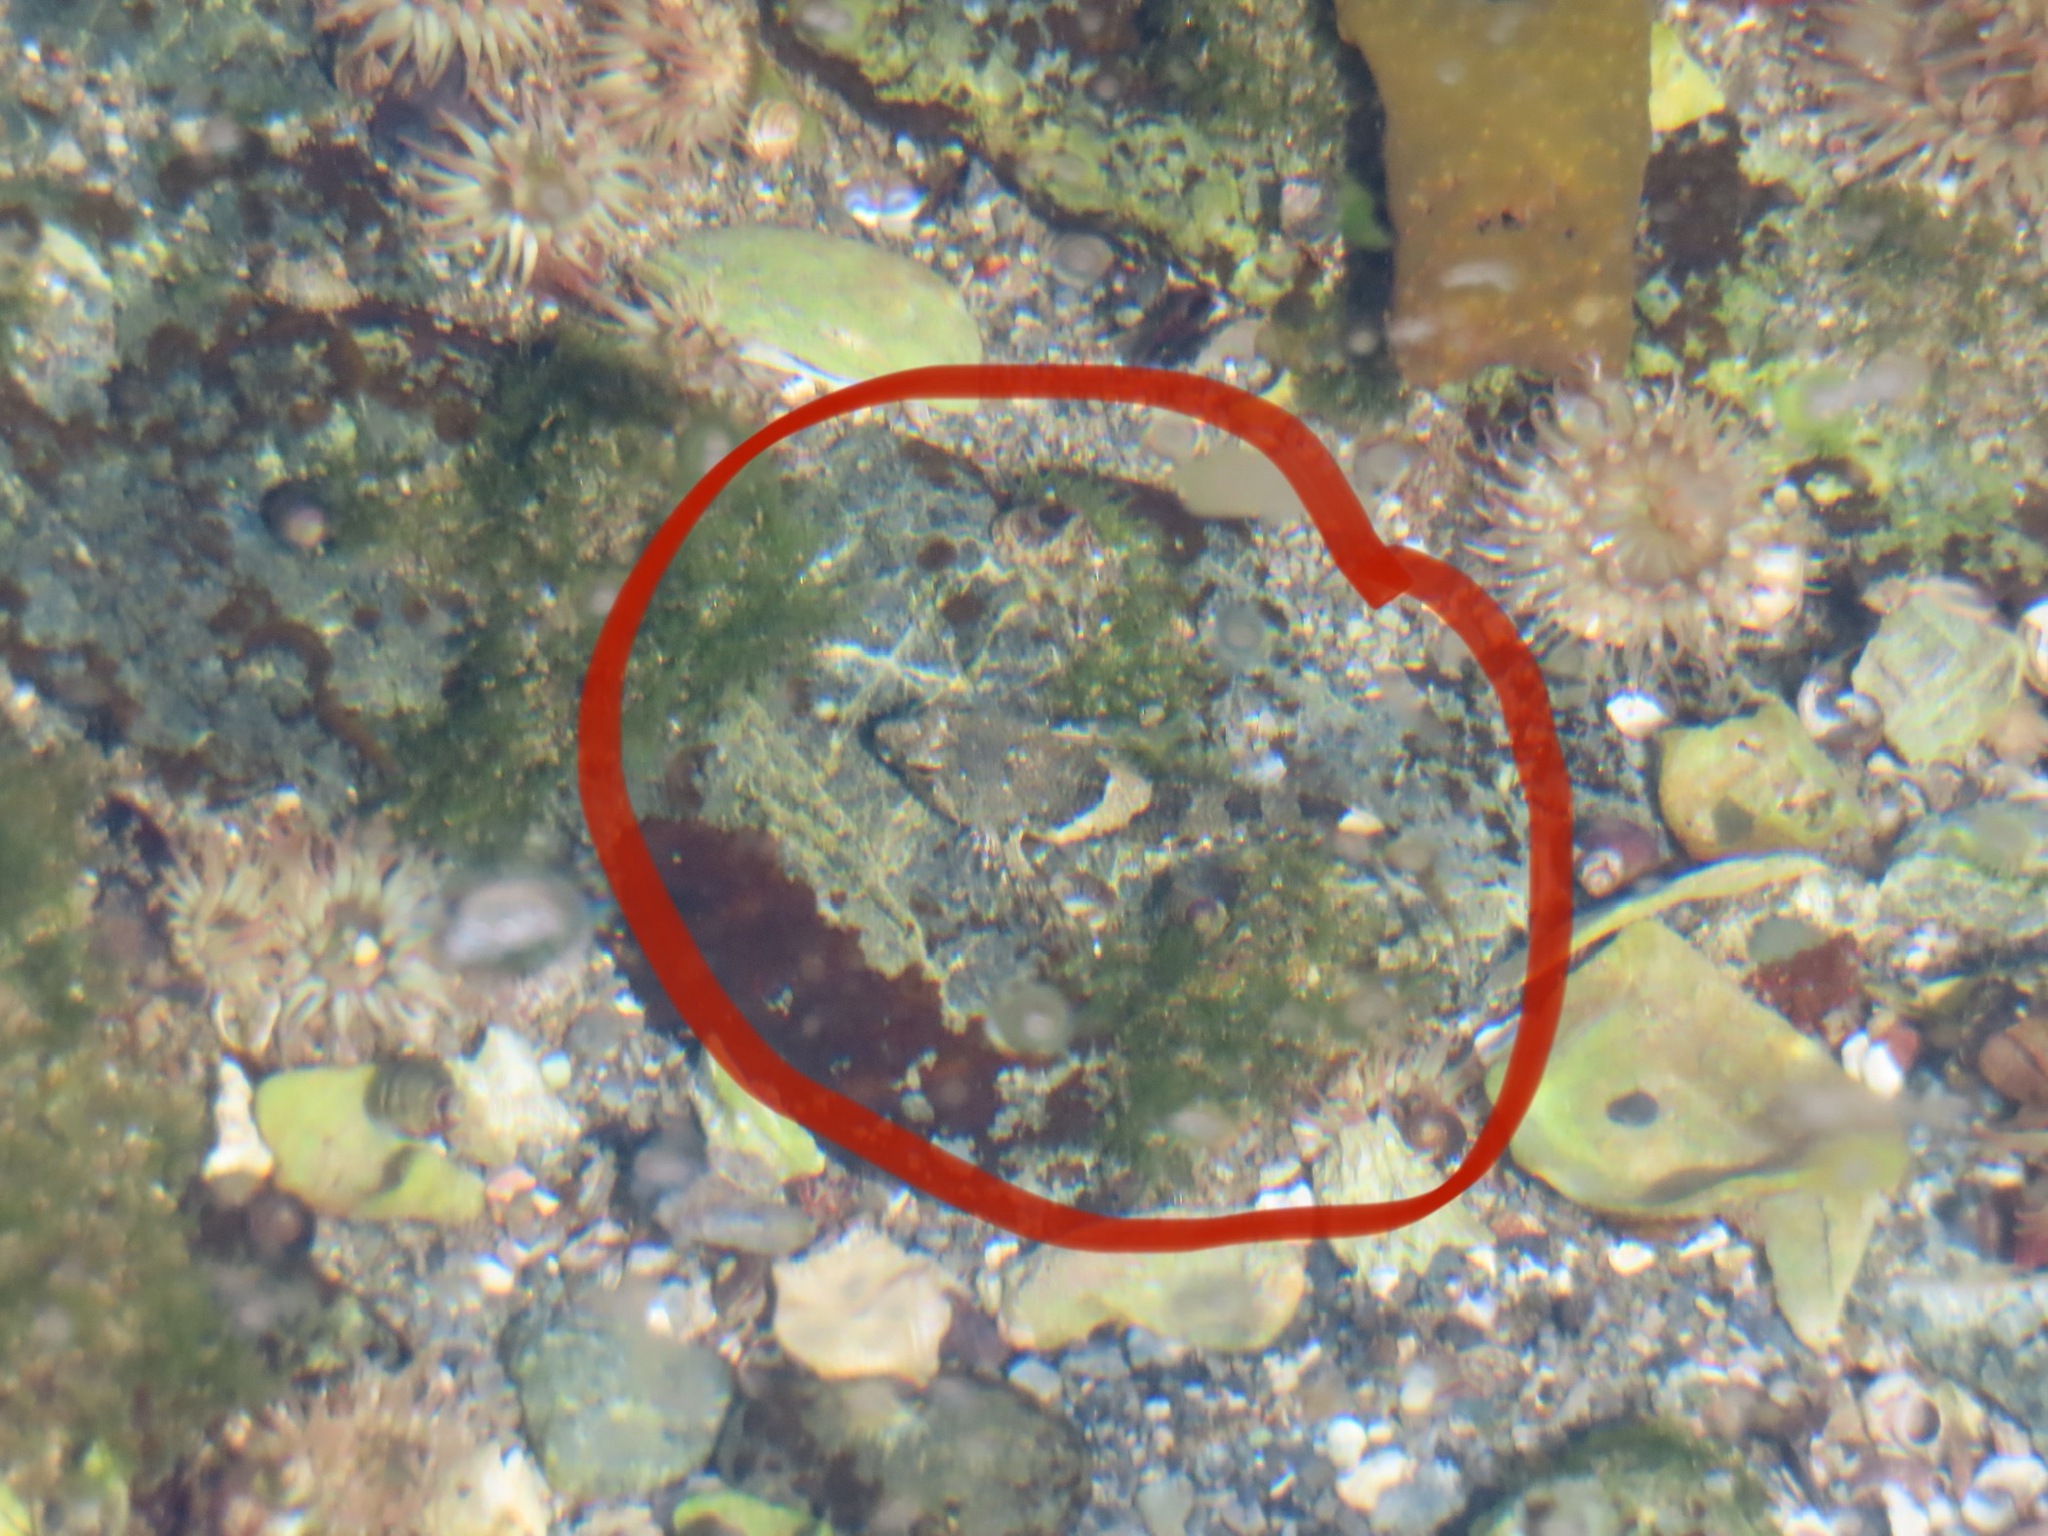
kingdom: Animalia
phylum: Chordata
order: Scorpaeniformes
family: Cottidae
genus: Oligocottus
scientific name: Oligocottus maculosus
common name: Tidepool sculpin
